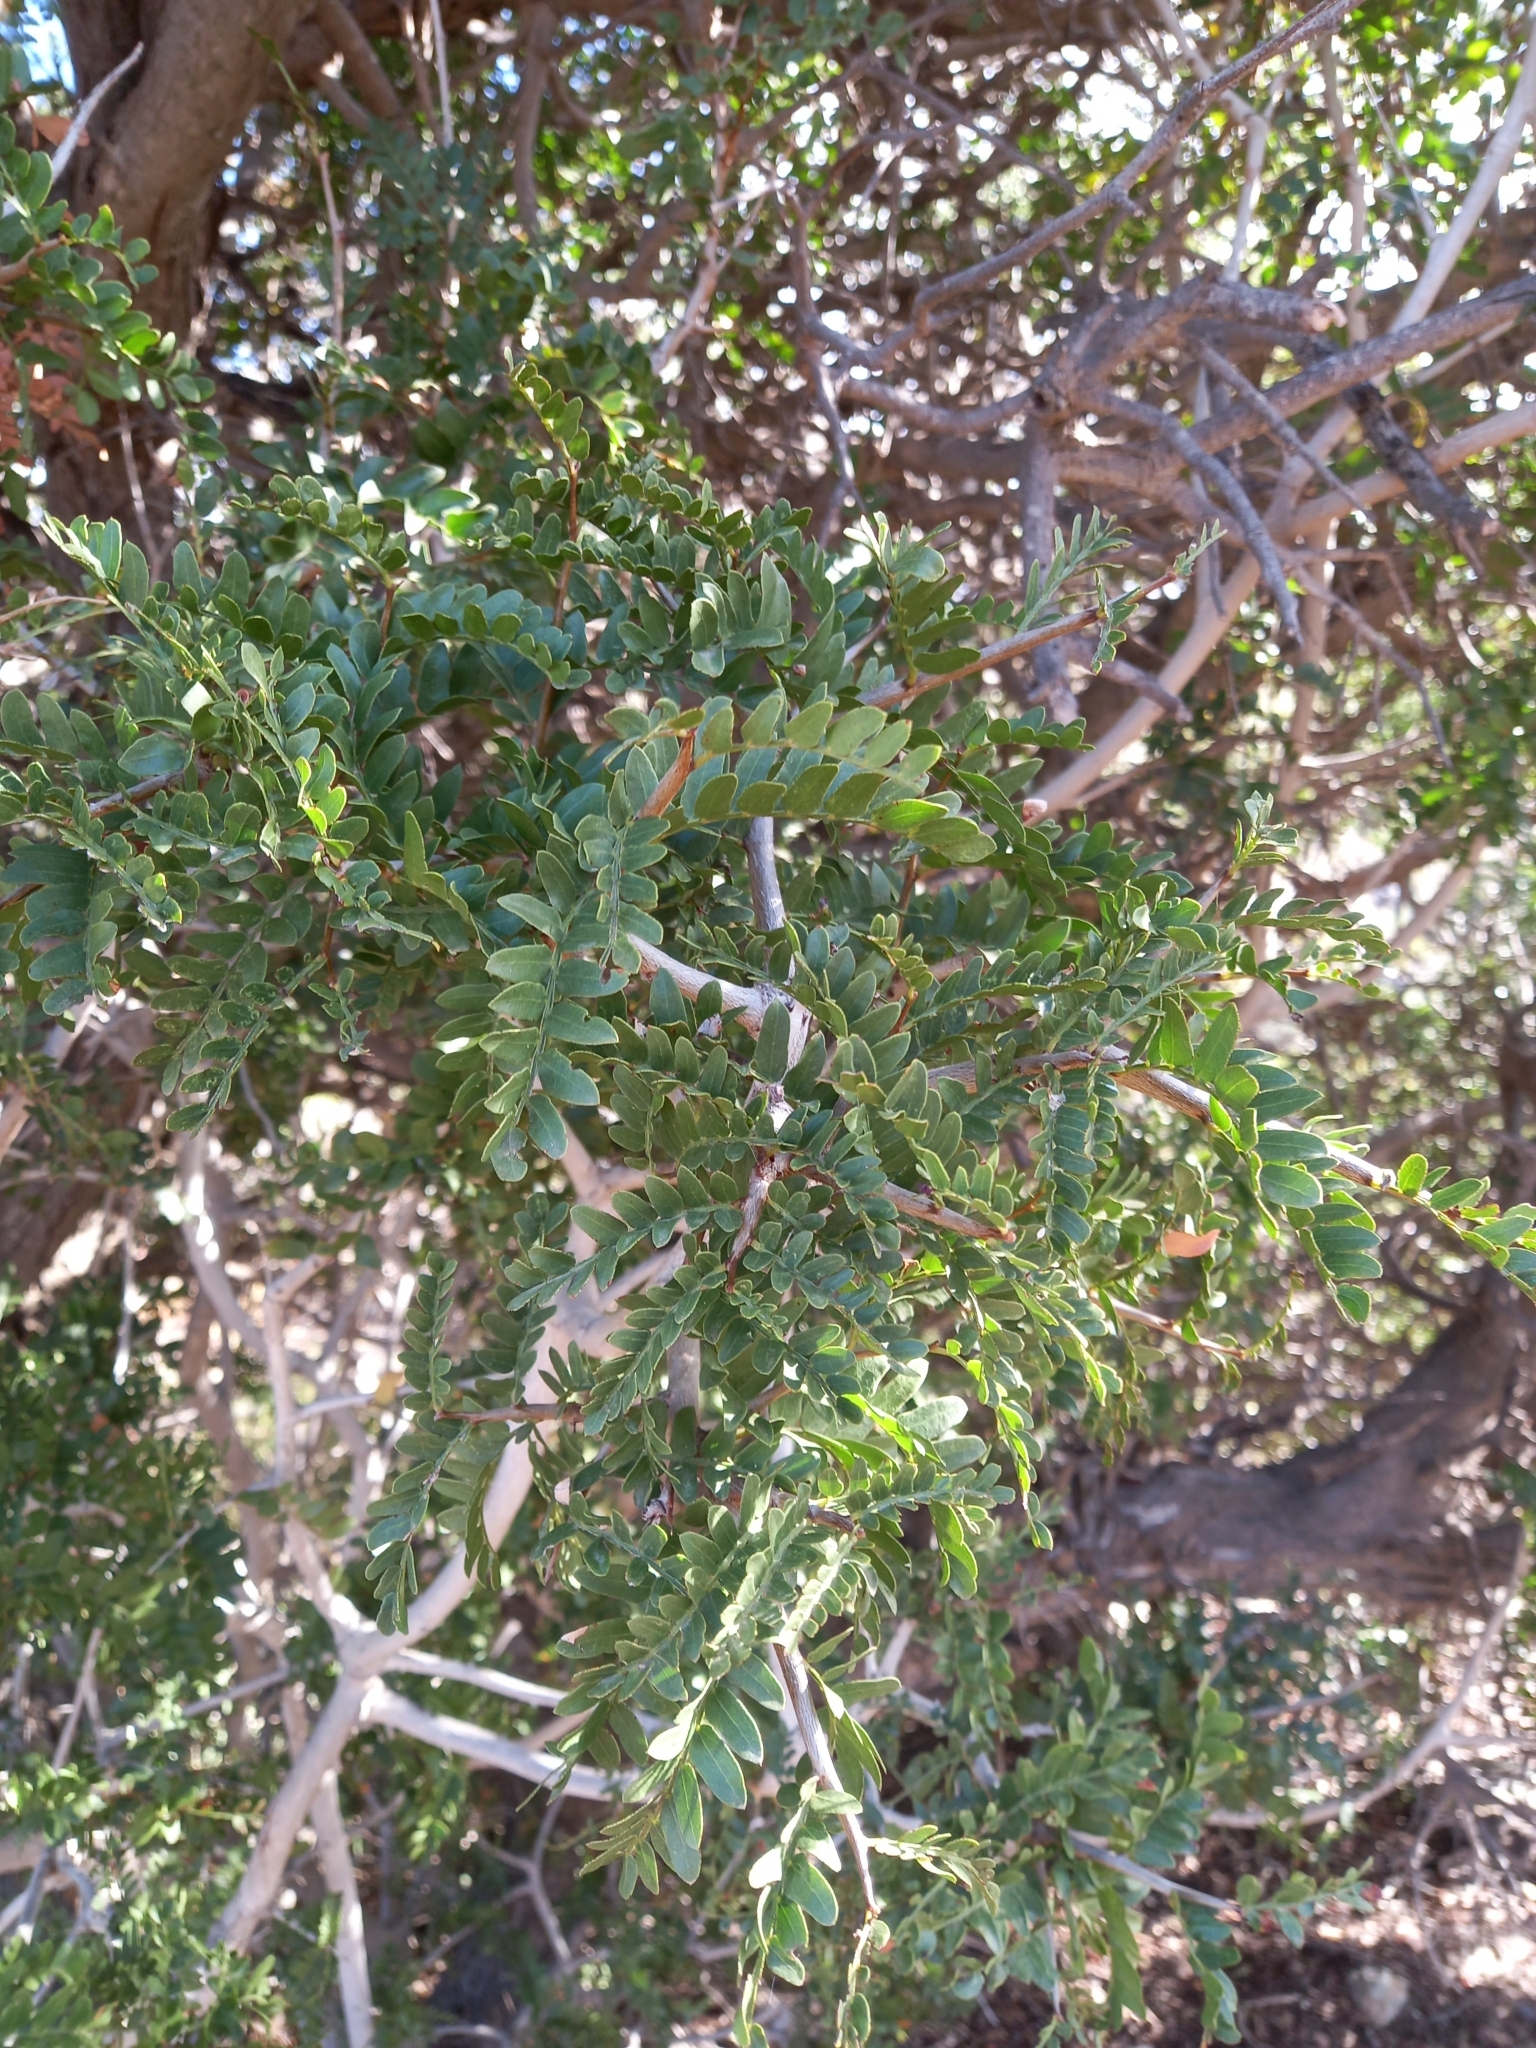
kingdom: Plantae
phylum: Tracheophyta
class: Magnoliopsida
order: Fabales
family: Fabaceae
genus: Schotia
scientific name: Schotia afra
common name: Hottentot's bean
